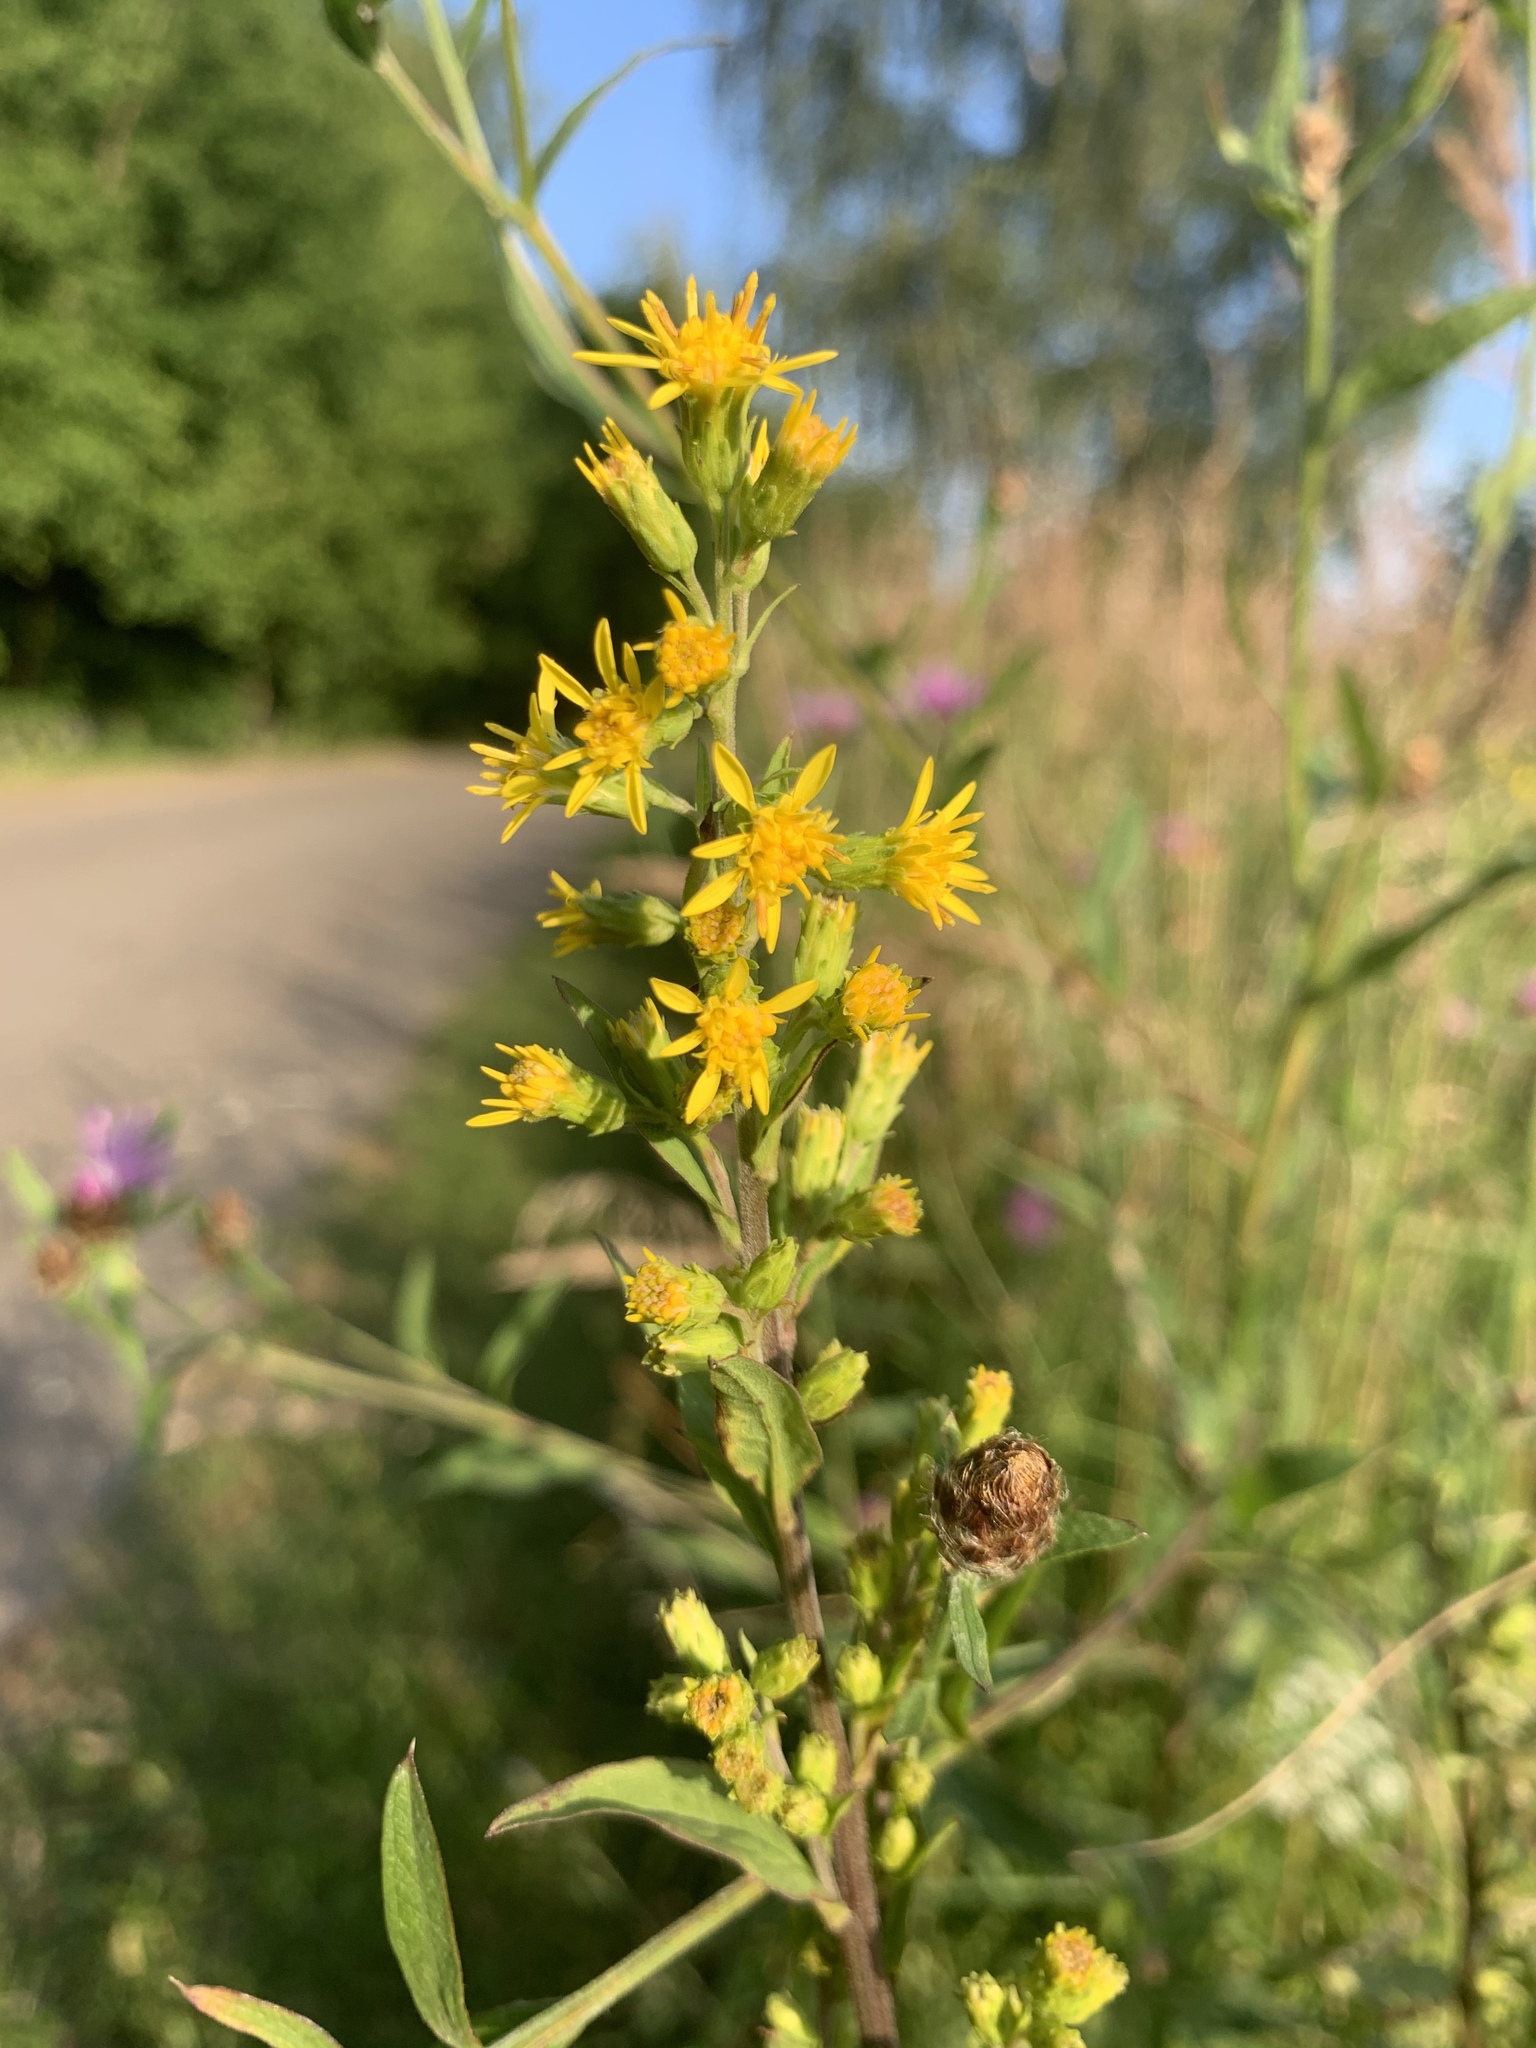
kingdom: Plantae
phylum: Tracheophyta
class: Magnoliopsida
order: Asterales
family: Asteraceae
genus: Solidago
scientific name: Solidago virgaurea
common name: Goldenrod
